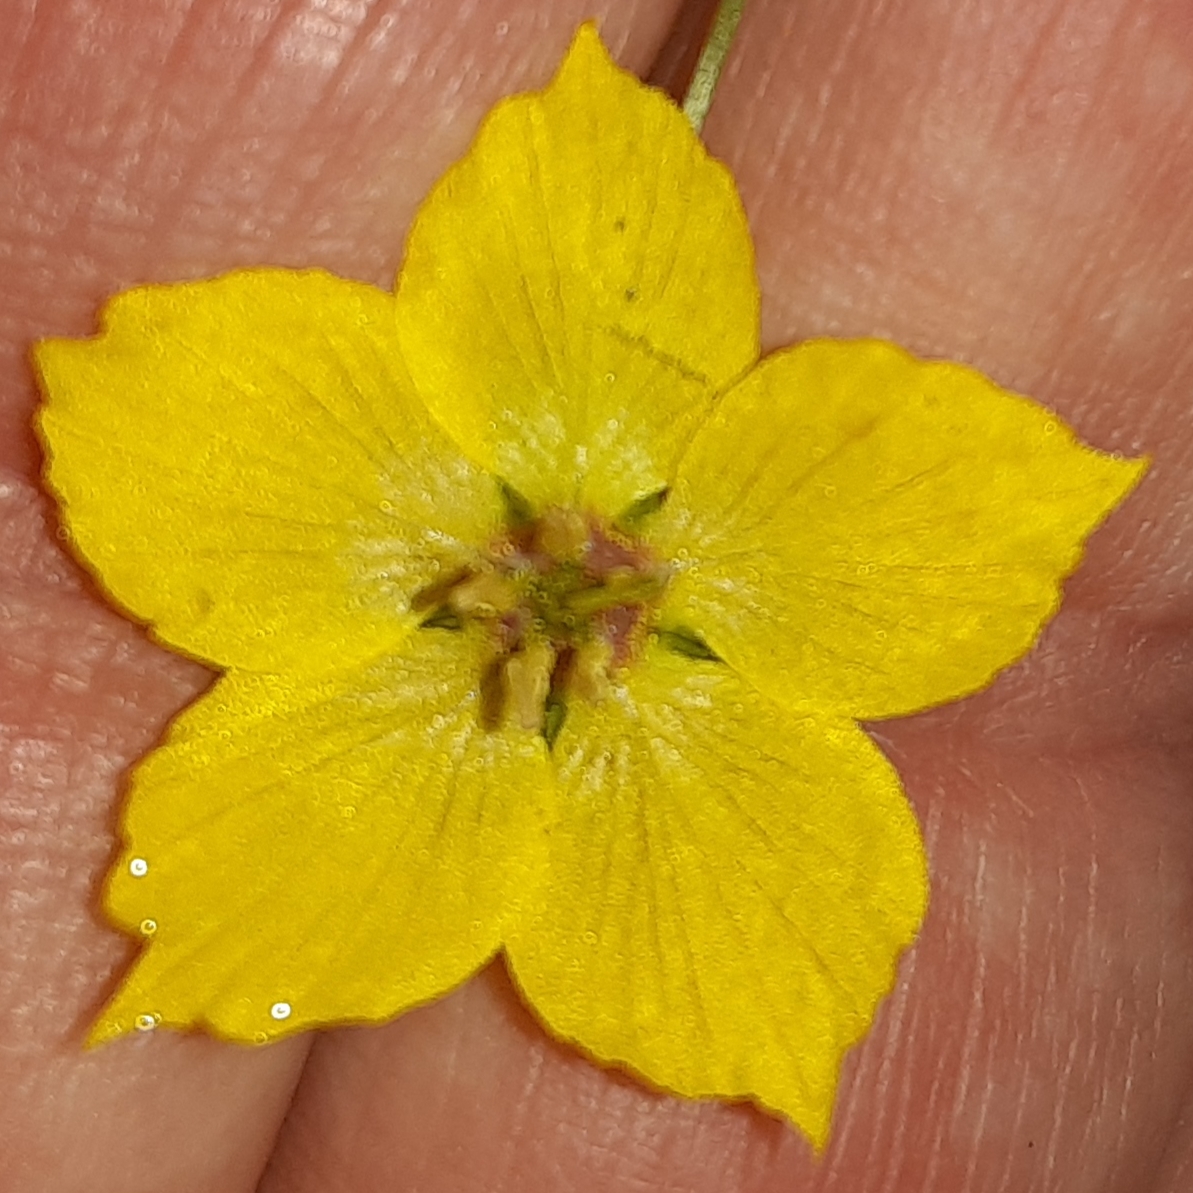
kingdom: Plantae
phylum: Tracheophyta
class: Magnoliopsida
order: Ericales
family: Primulaceae
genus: Lysimachia
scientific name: Lysimachia ciliata
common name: Fringed loosestrife
